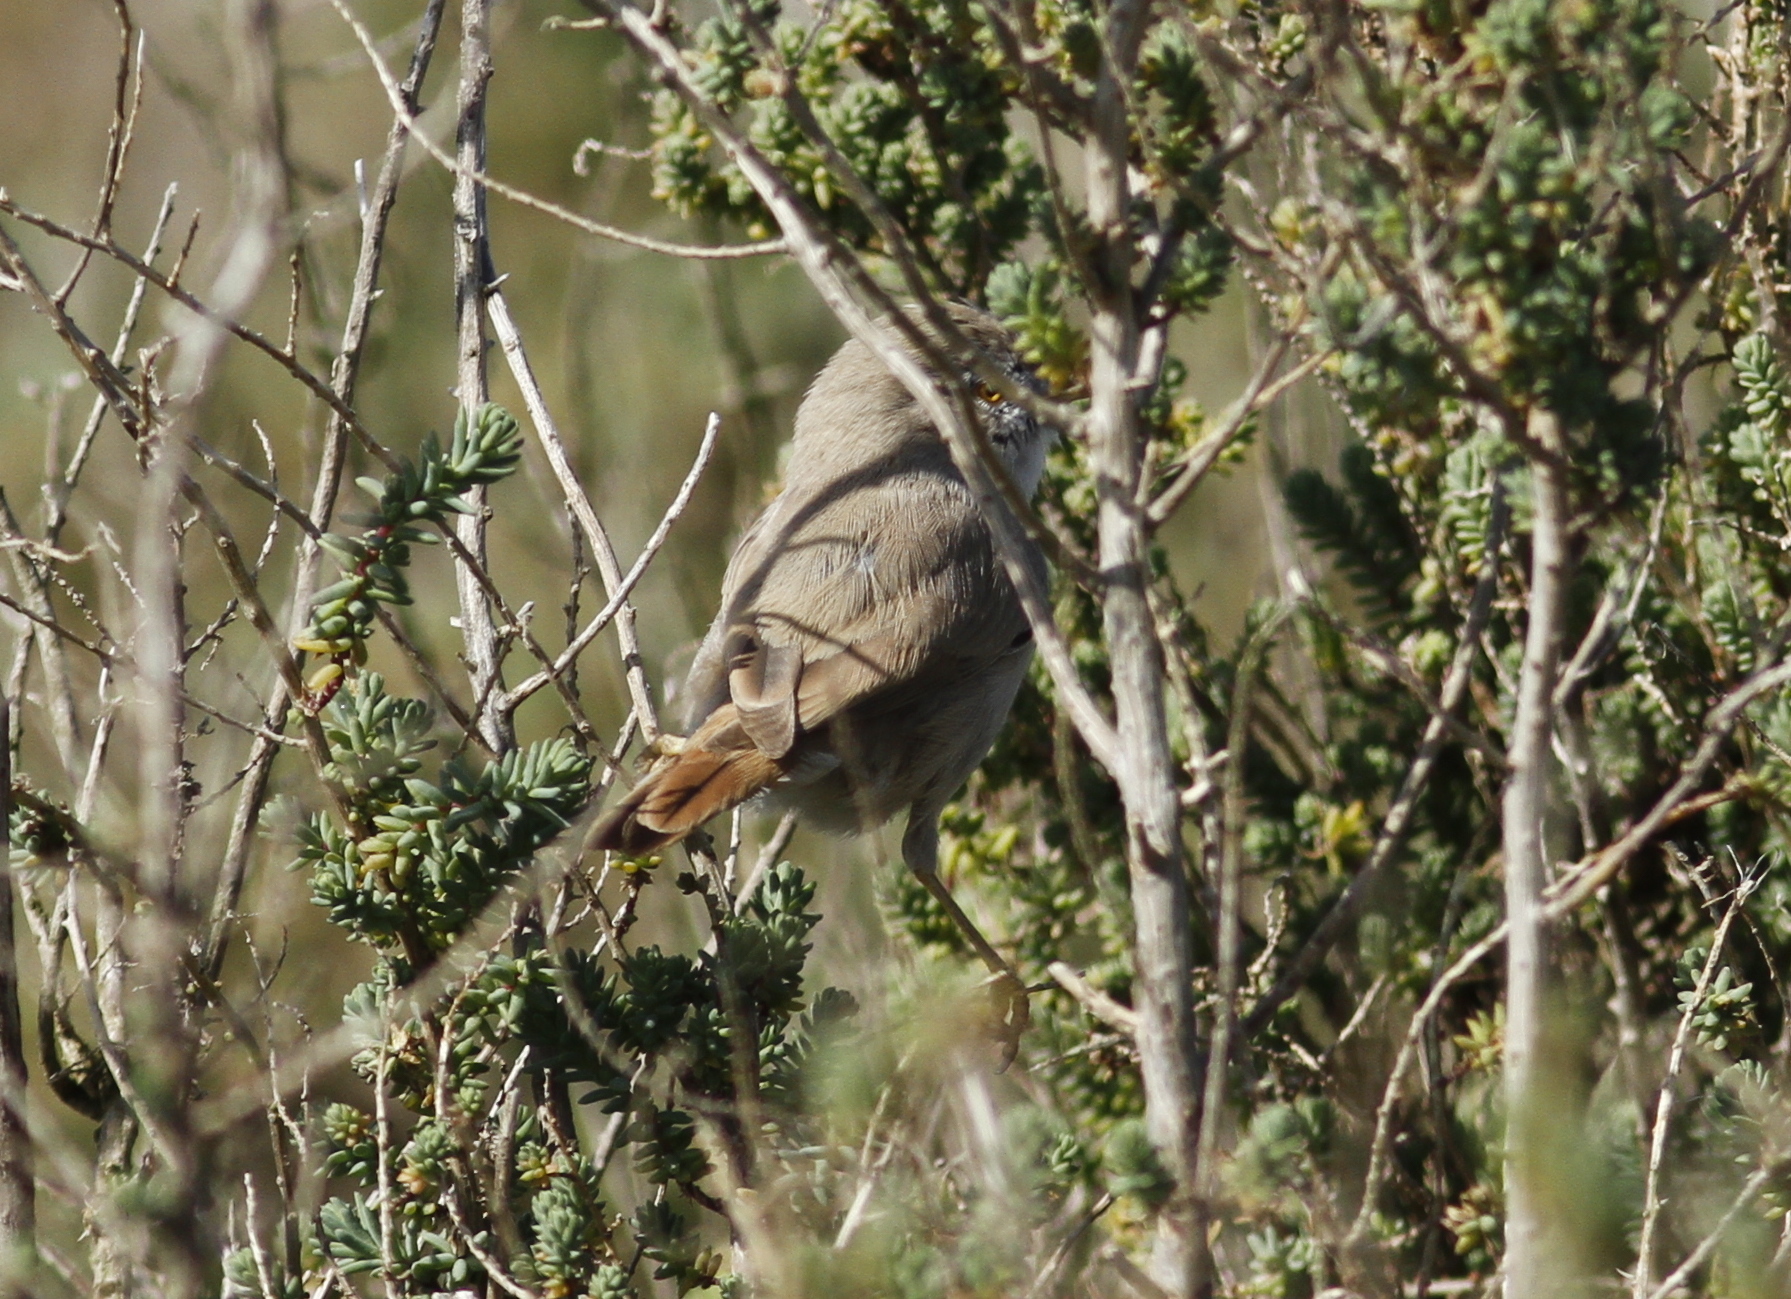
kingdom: Animalia
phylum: Chordata
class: Aves
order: Passeriformes
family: Sylviidae
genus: Sylvia
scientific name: Sylvia nana
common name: Asian desert warbler
